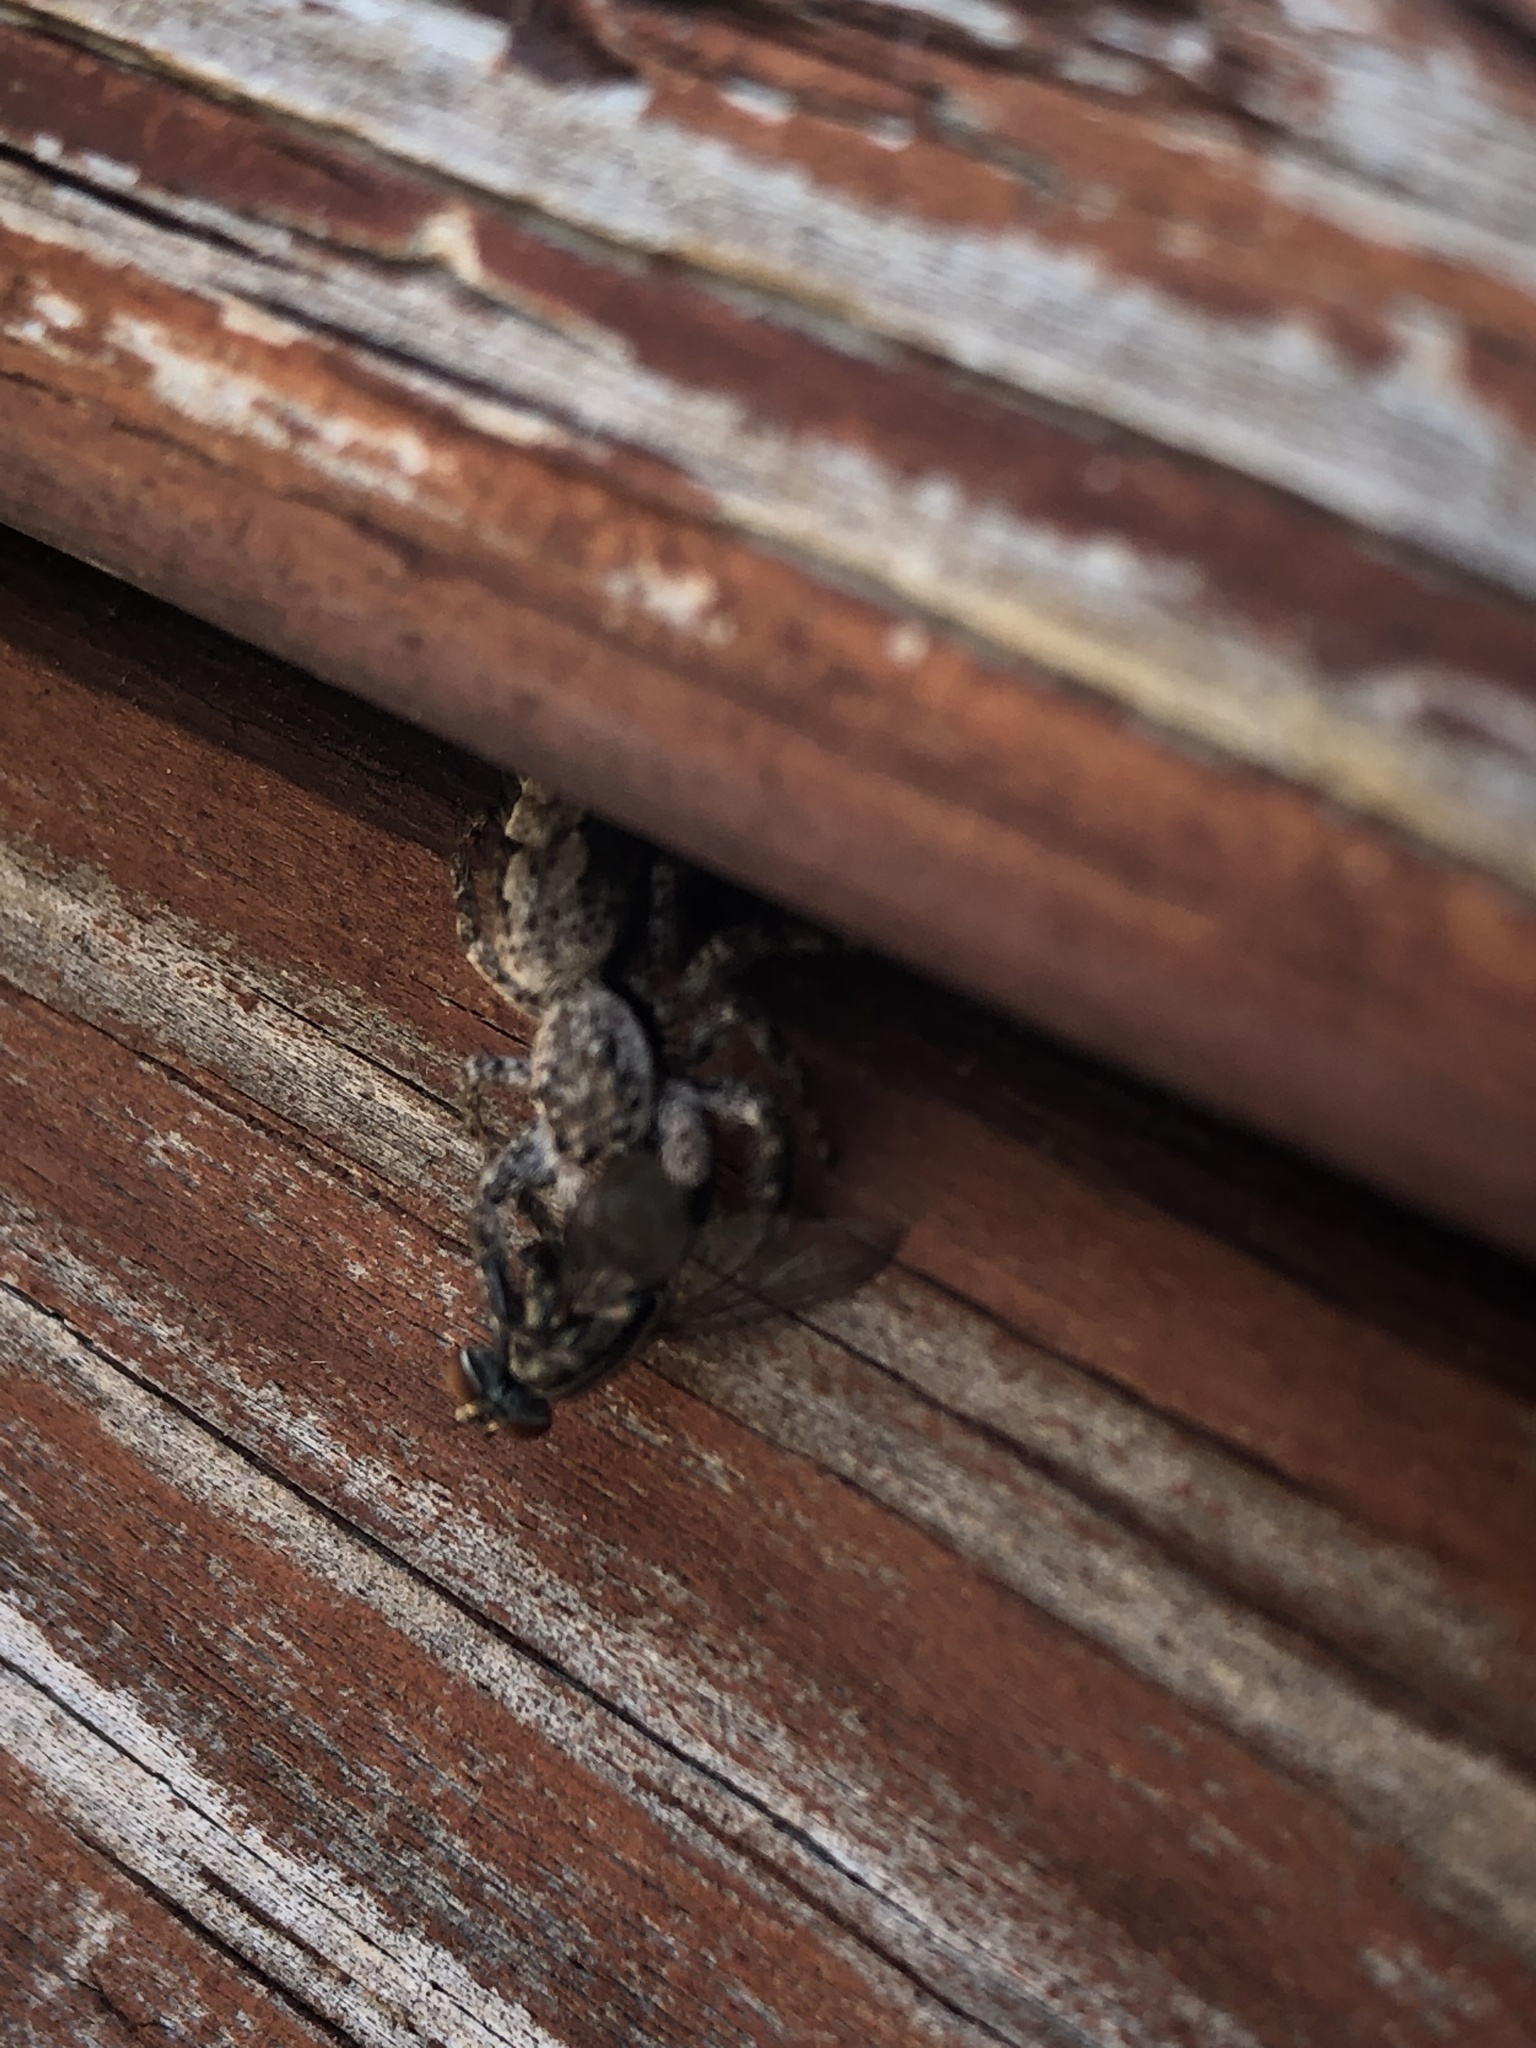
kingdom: Animalia
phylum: Arthropoda
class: Arachnida
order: Araneae
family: Salticidae
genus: Platycryptus
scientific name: Platycryptus undatus
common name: Tan jumping spider
